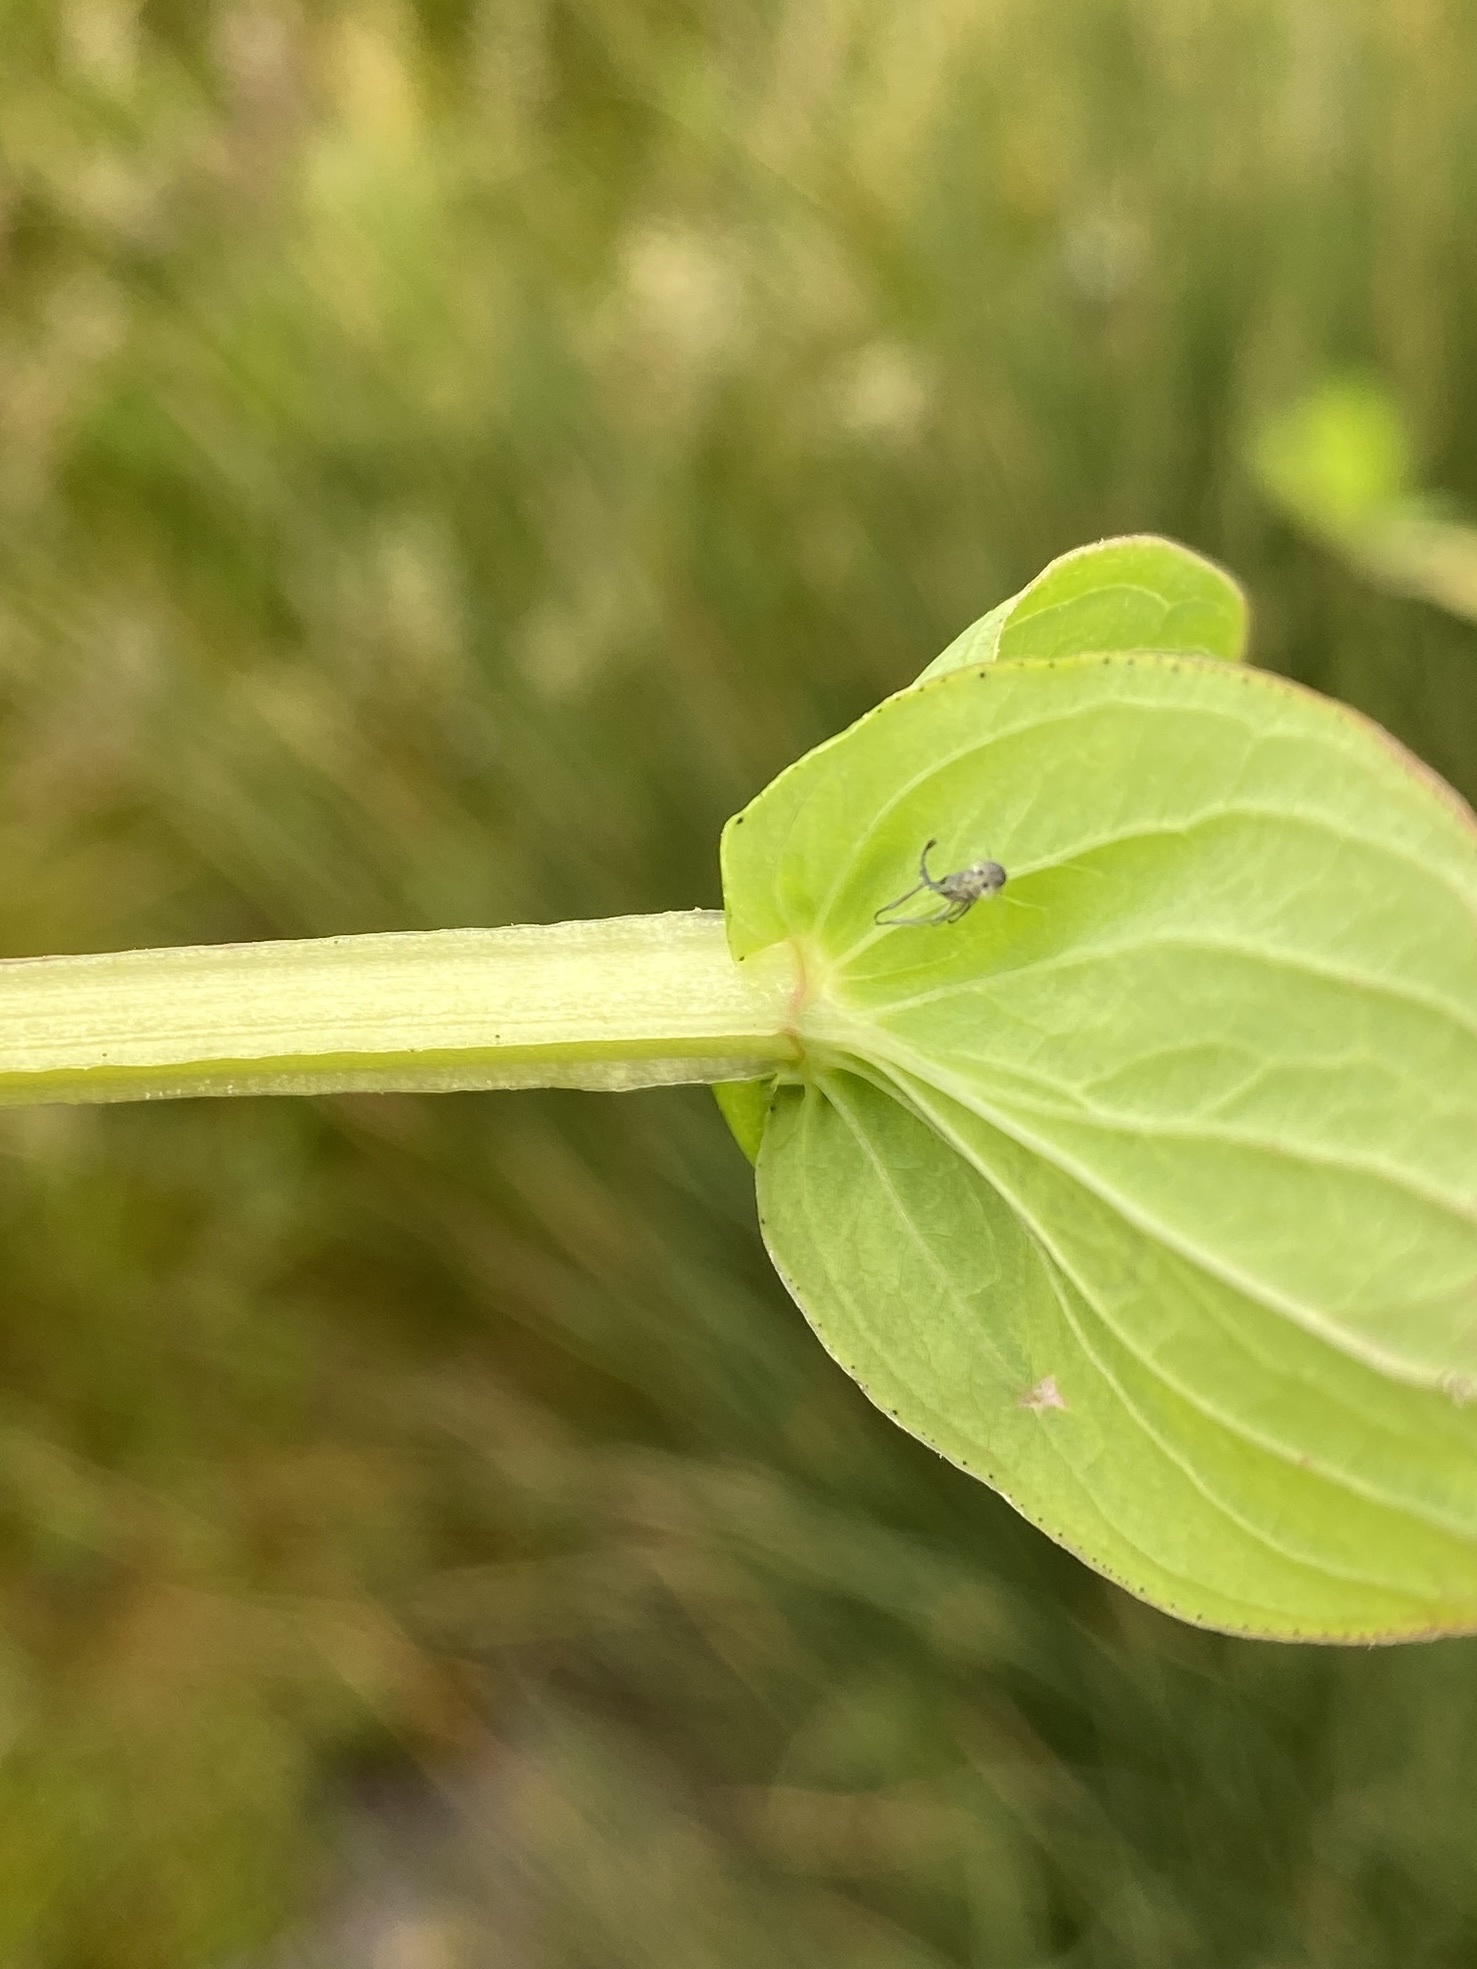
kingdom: Plantae
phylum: Tracheophyta
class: Magnoliopsida
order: Malpighiales
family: Hypericaceae
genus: Hypericum
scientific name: Hypericum tetrapterum
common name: Square-stalked st. john's-wort
